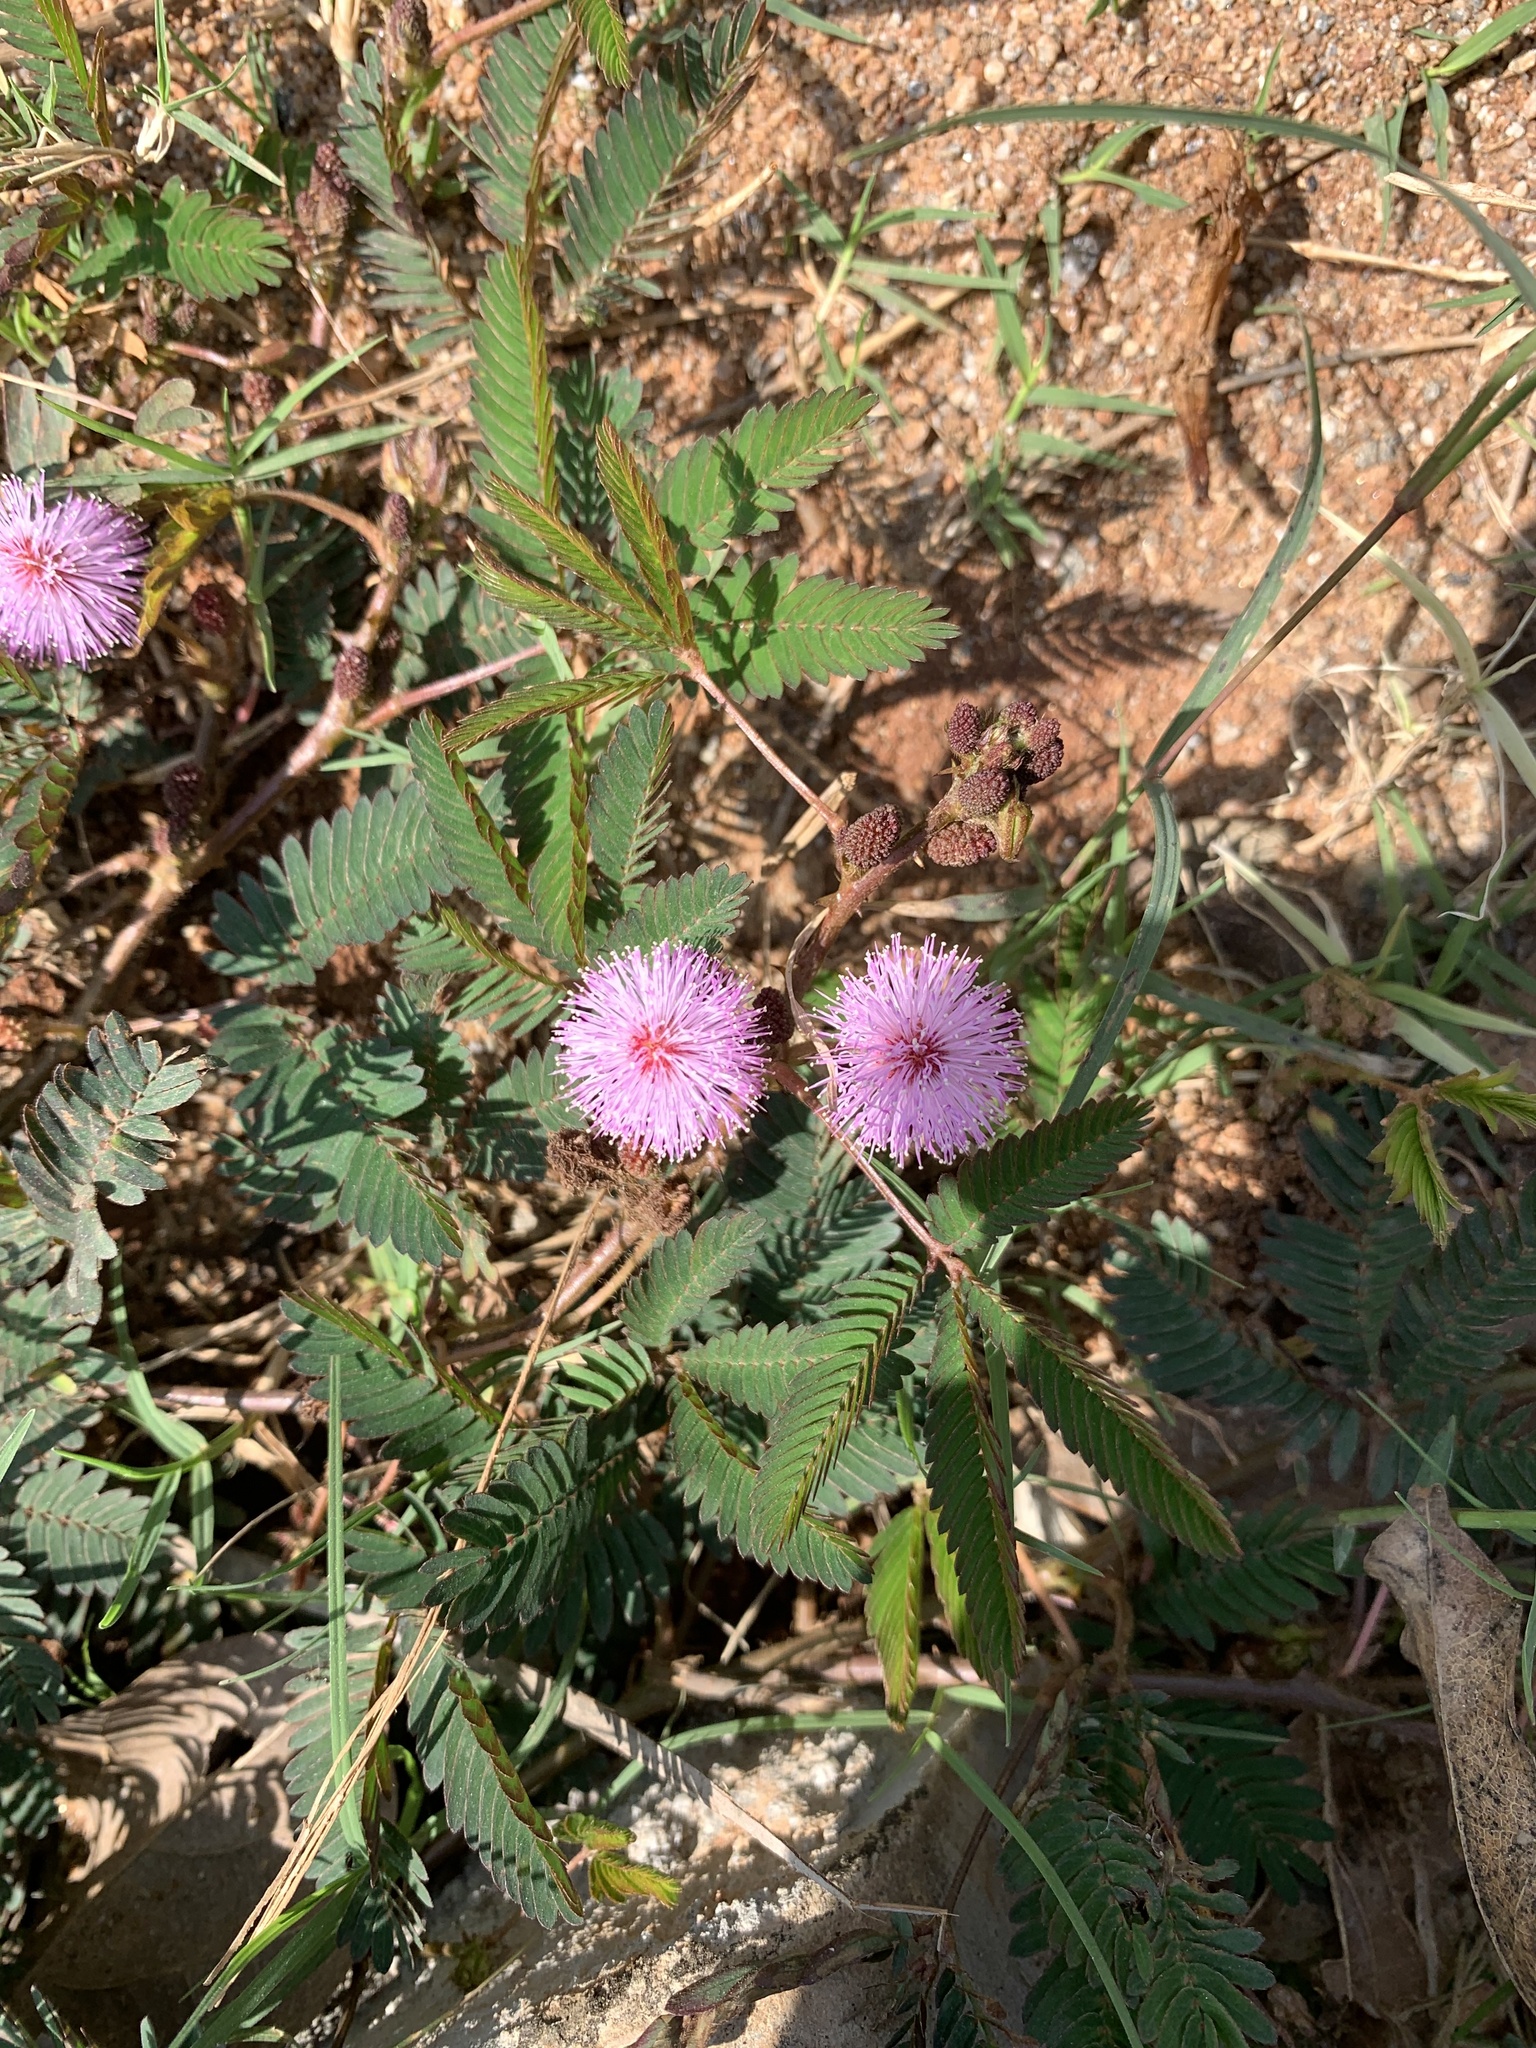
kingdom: Plantae
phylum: Tracheophyta
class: Magnoliopsida
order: Fabales
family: Fabaceae
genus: Mimosa
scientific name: Mimosa pudica
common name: Sensitive plant
